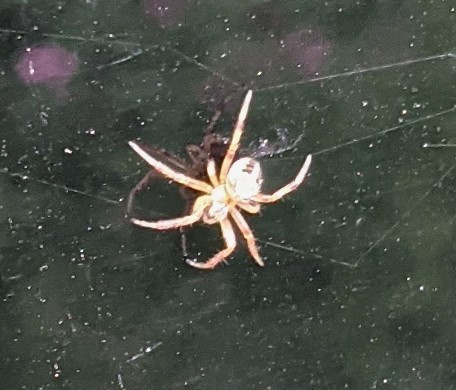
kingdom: Animalia
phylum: Arthropoda
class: Arachnida
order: Araneae
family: Araneidae
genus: Neoscona
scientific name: Neoscona arabesca
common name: Orb weavers
